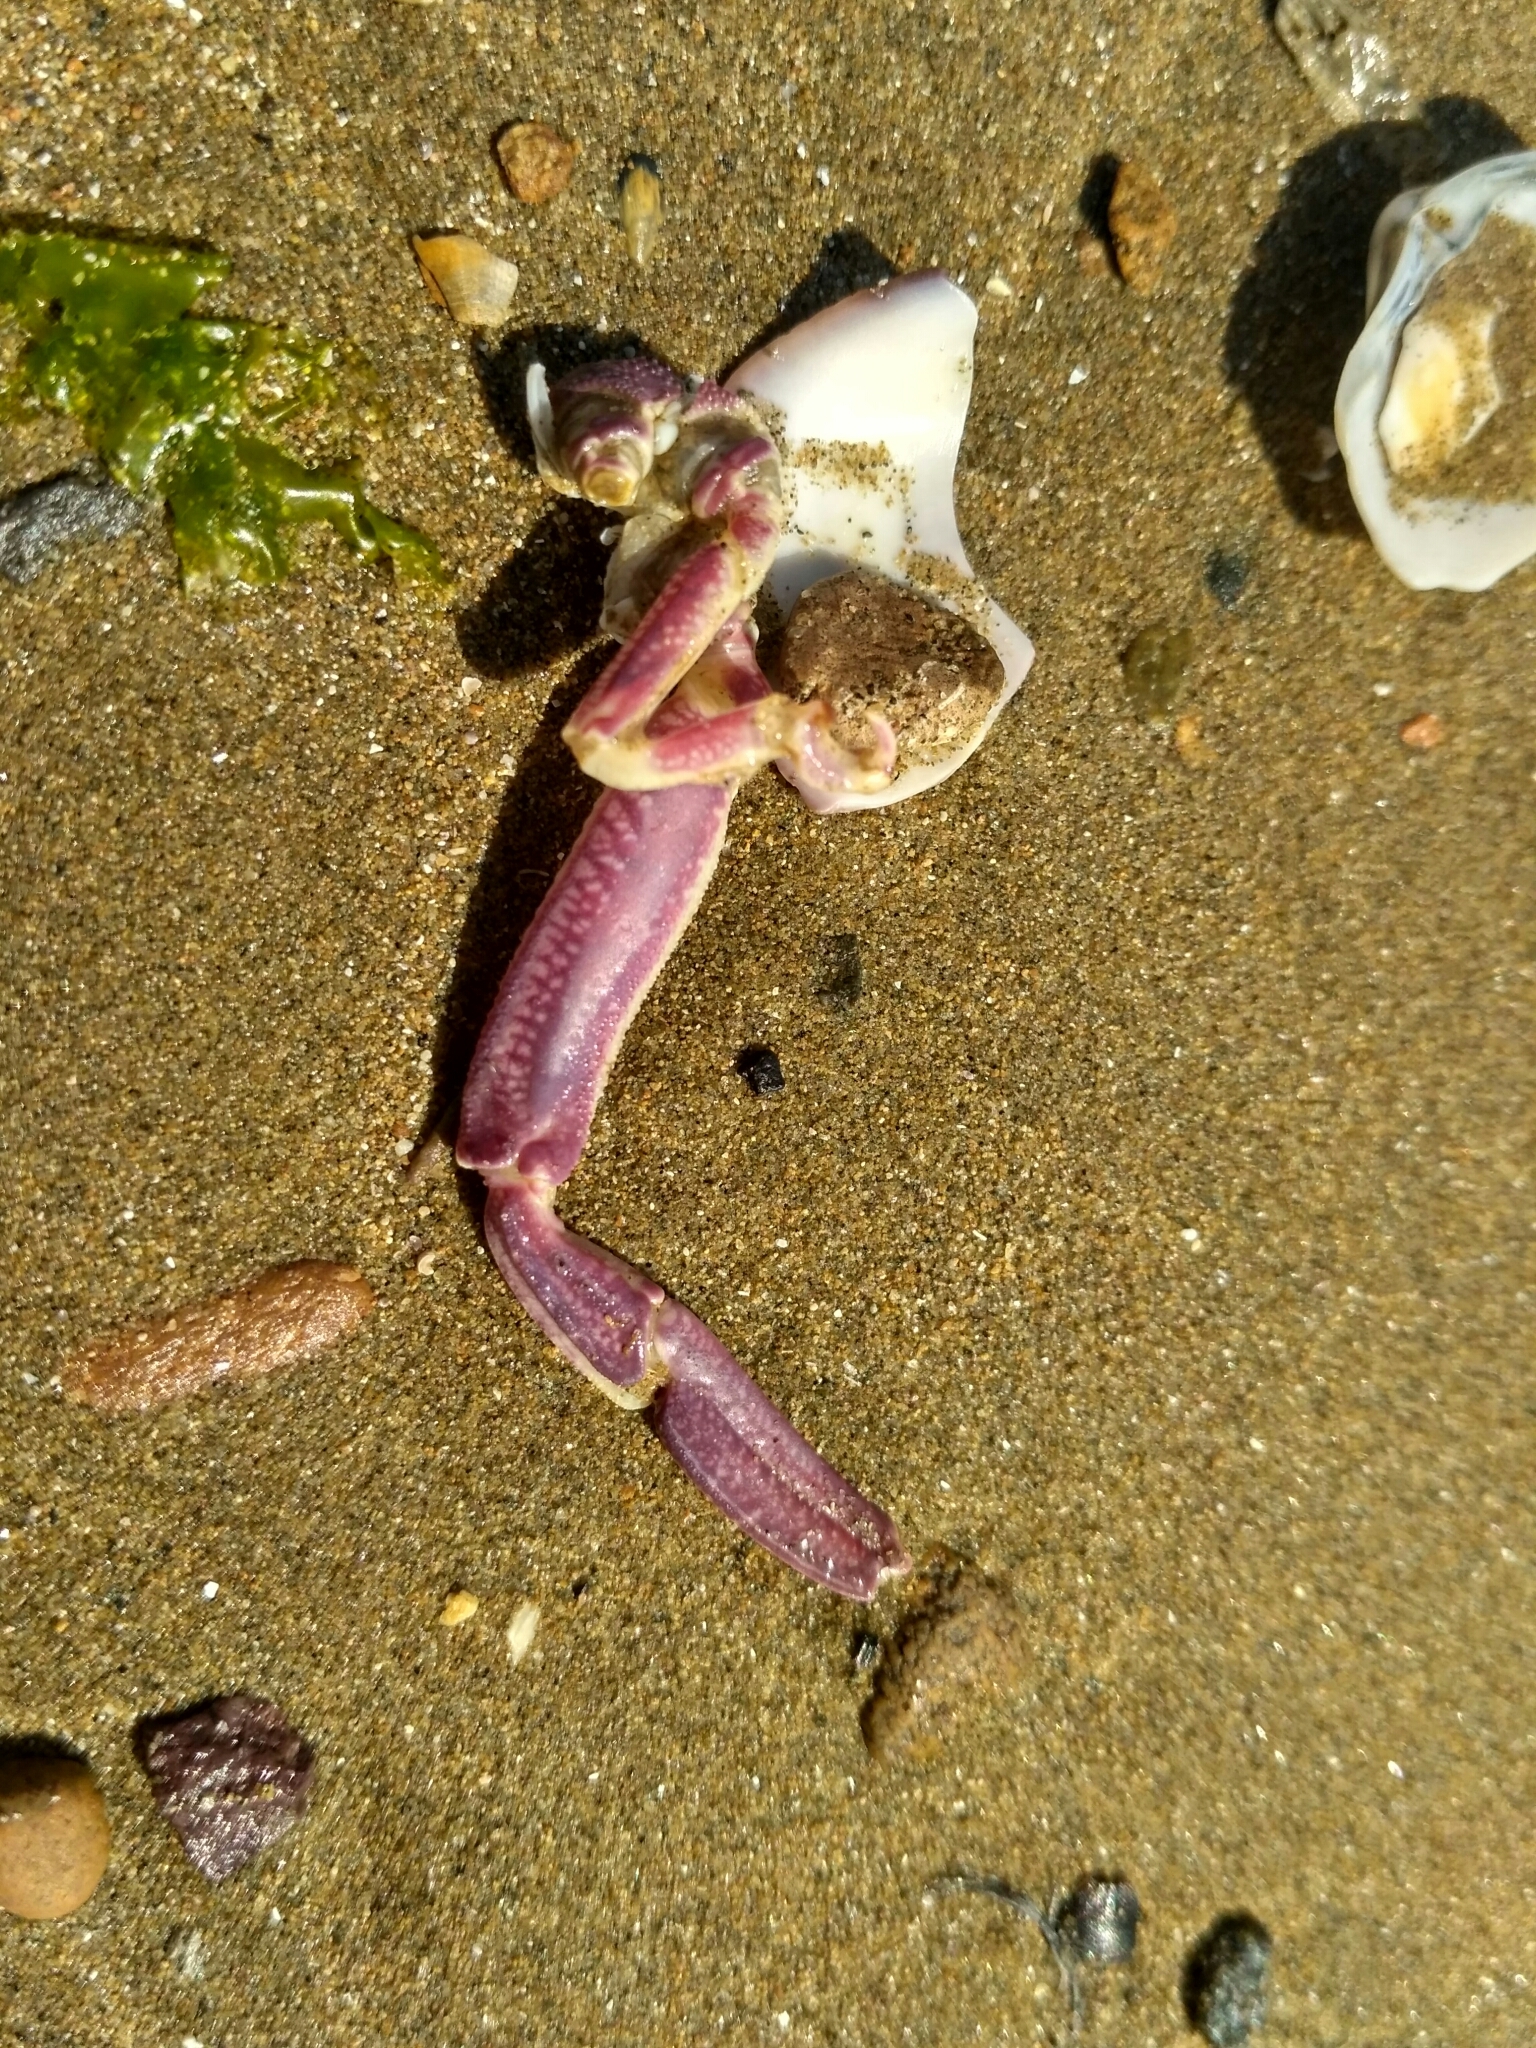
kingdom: Animalia
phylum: Arthropoda
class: Malacostraca
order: Decapoda
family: Dorippidae
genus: Paradorippe
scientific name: Paradorippe granulata
